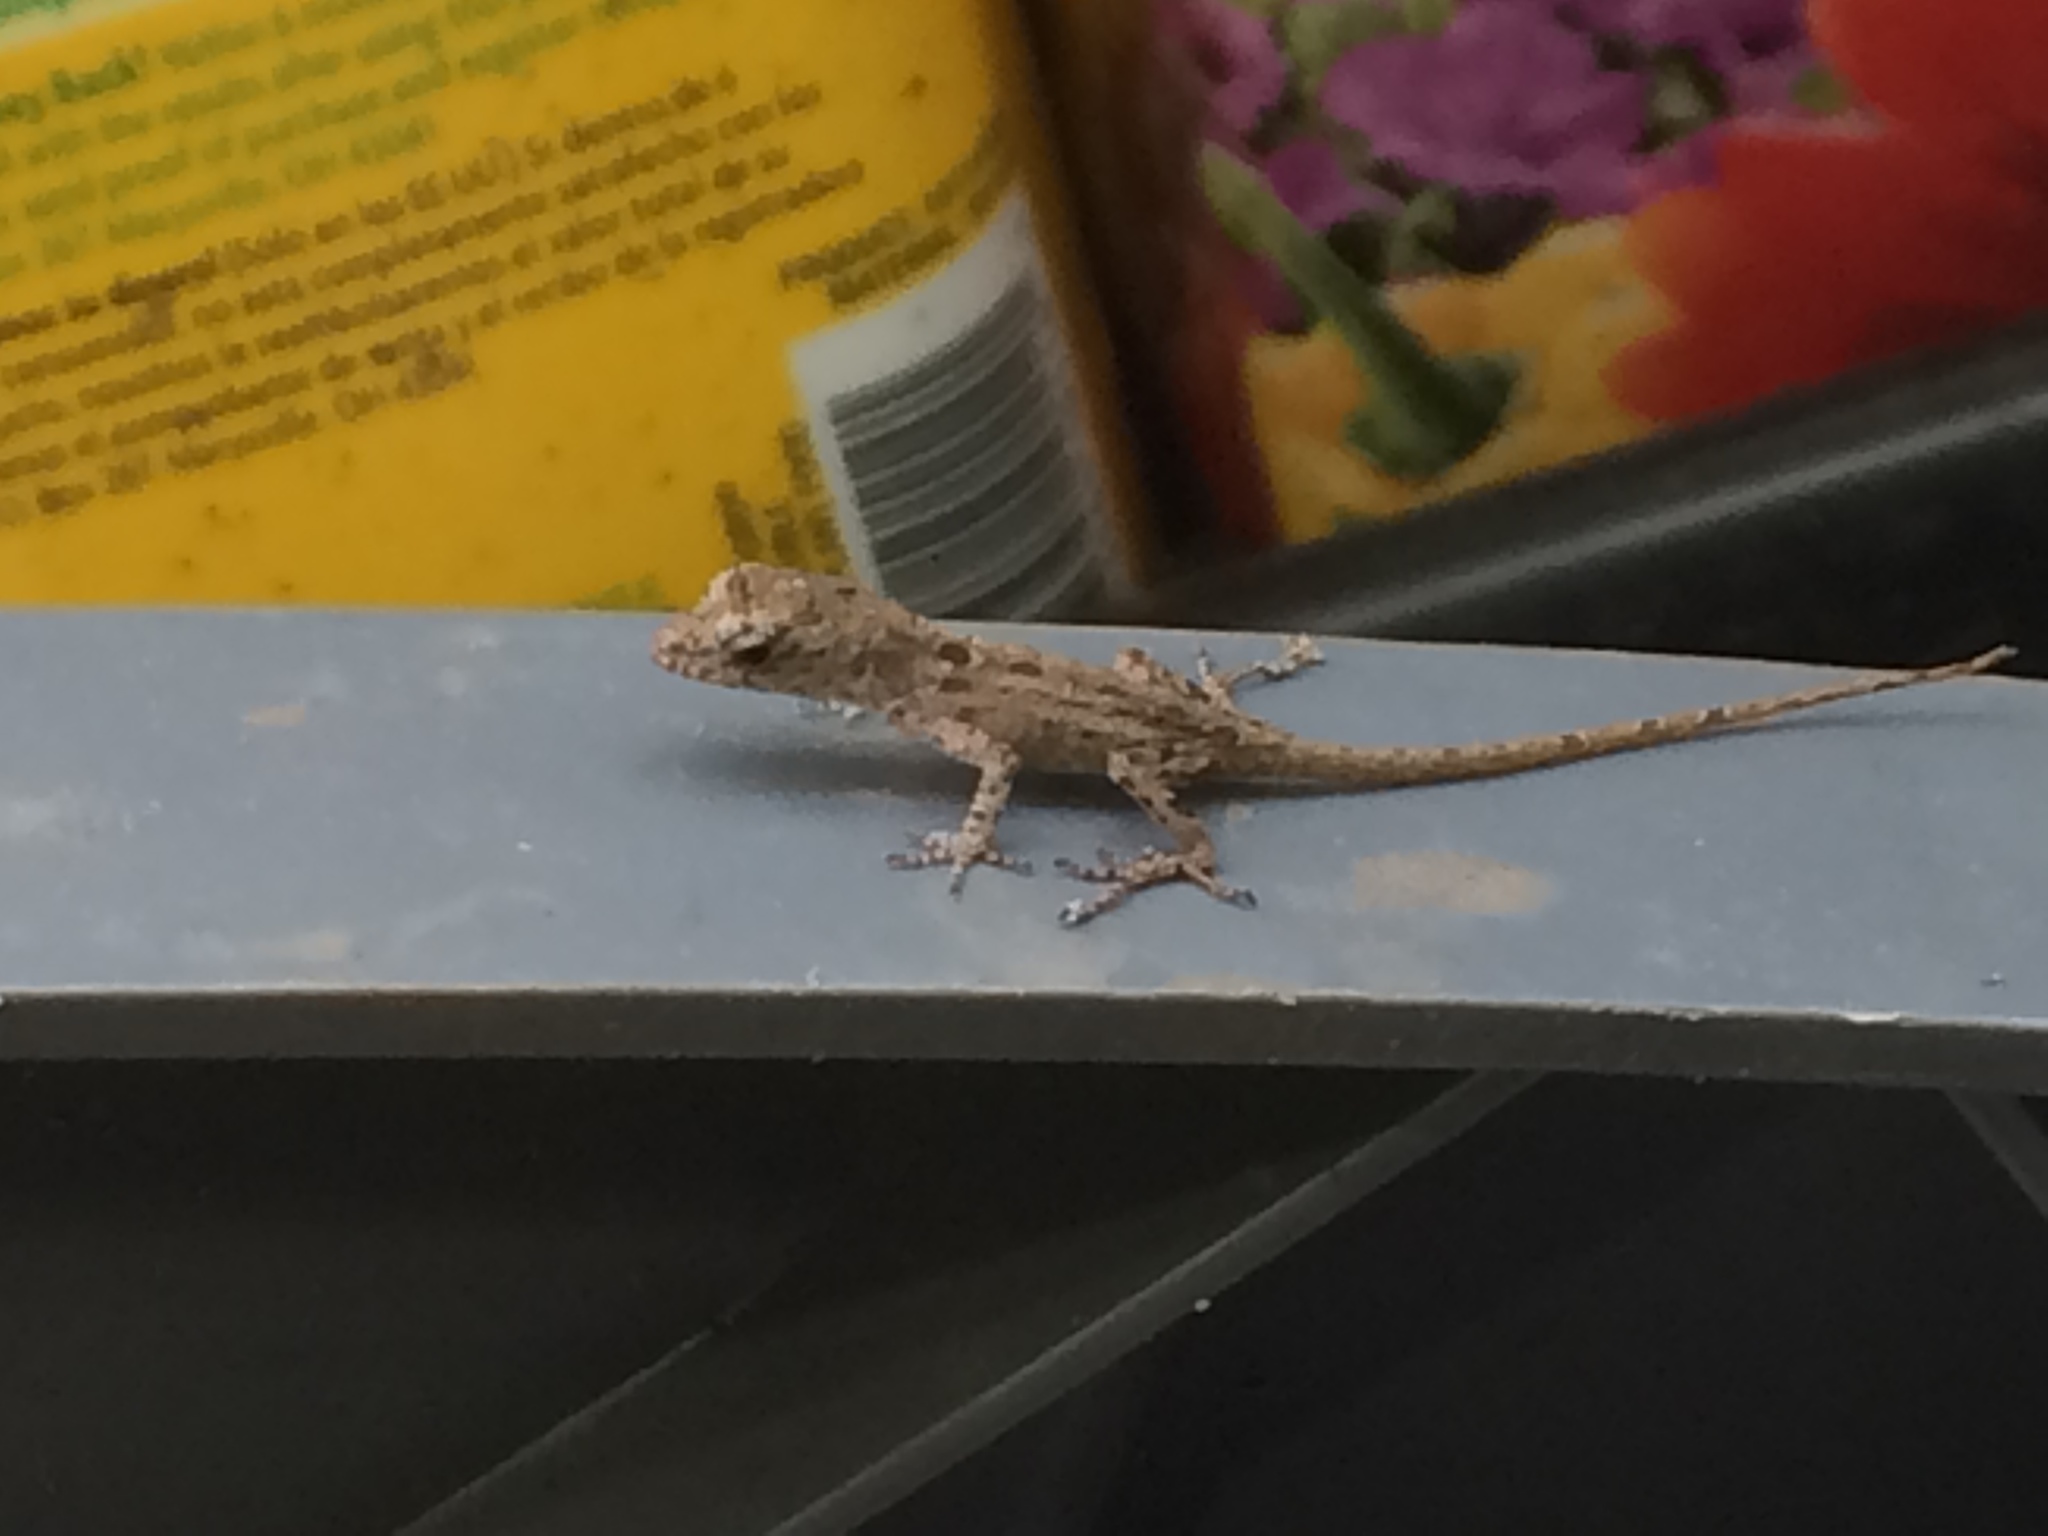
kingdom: Animalia
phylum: Chordata
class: Squamata
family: Dactyloidae
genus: Anolis
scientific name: Anolis sagrei
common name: Brown anole
